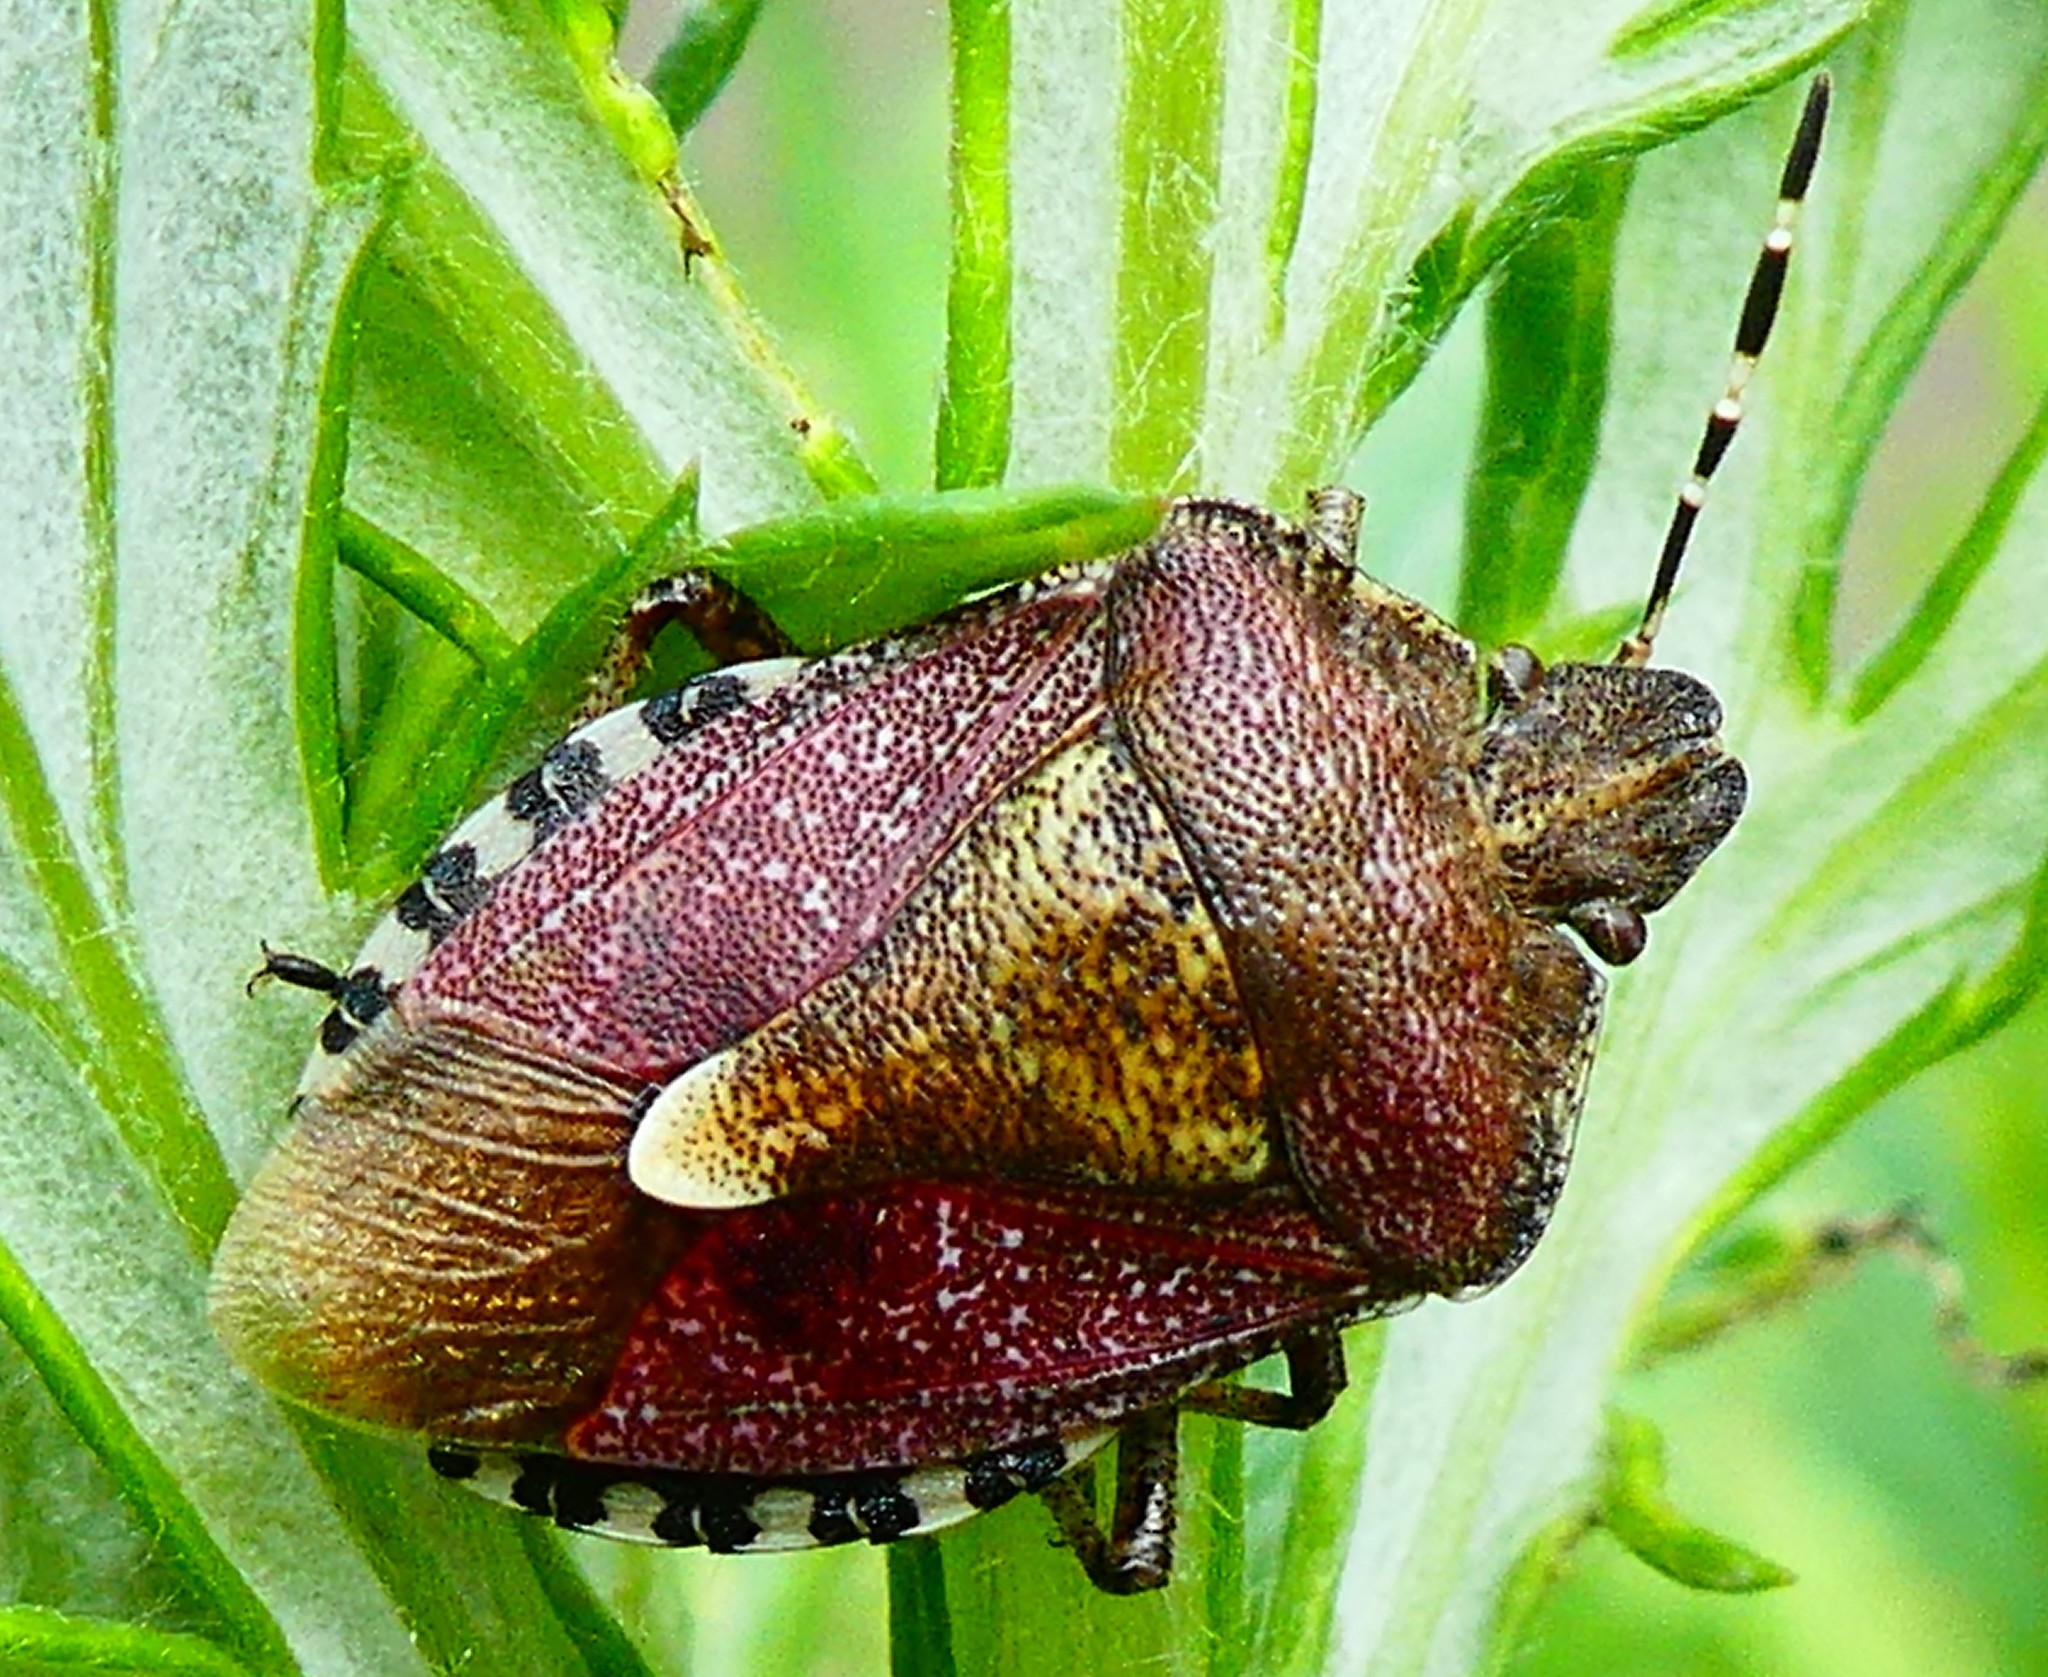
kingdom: Animalia
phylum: Arthropoda
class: Insecta
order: Hemiptera
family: Pentatomidae
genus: Dolycoris
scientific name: Dolycoris baccarum
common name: Sloe bug
